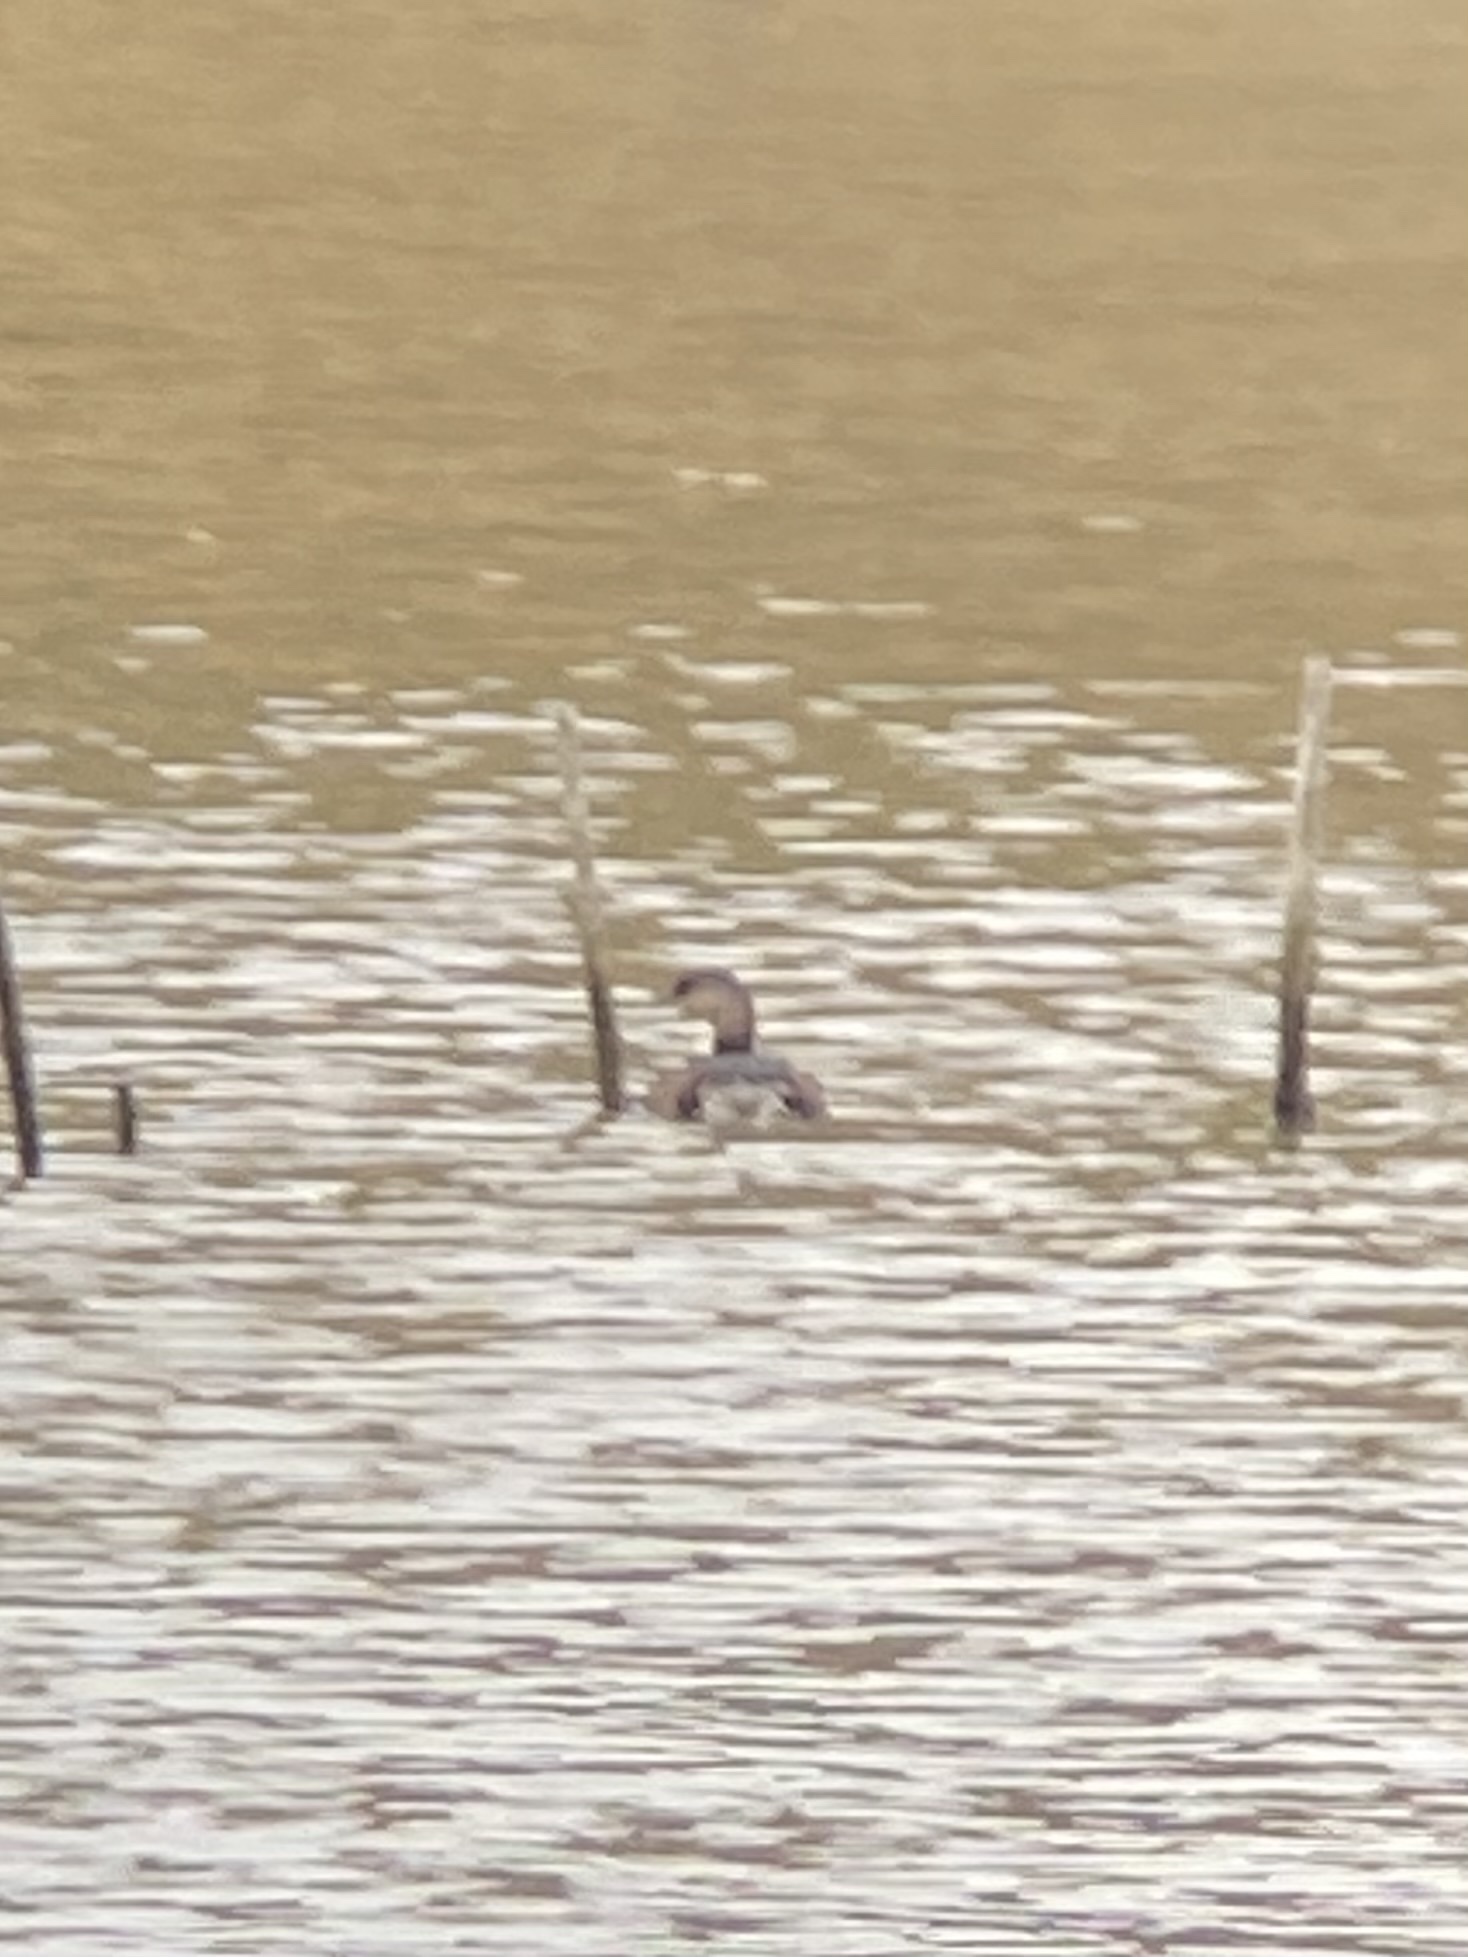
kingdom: Animalia
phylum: Chordata
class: Aves
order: Podicipediformes
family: Podicipedidae
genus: Podilymbus
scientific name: Podilymbus podiceps
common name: Pied-billed grebe
